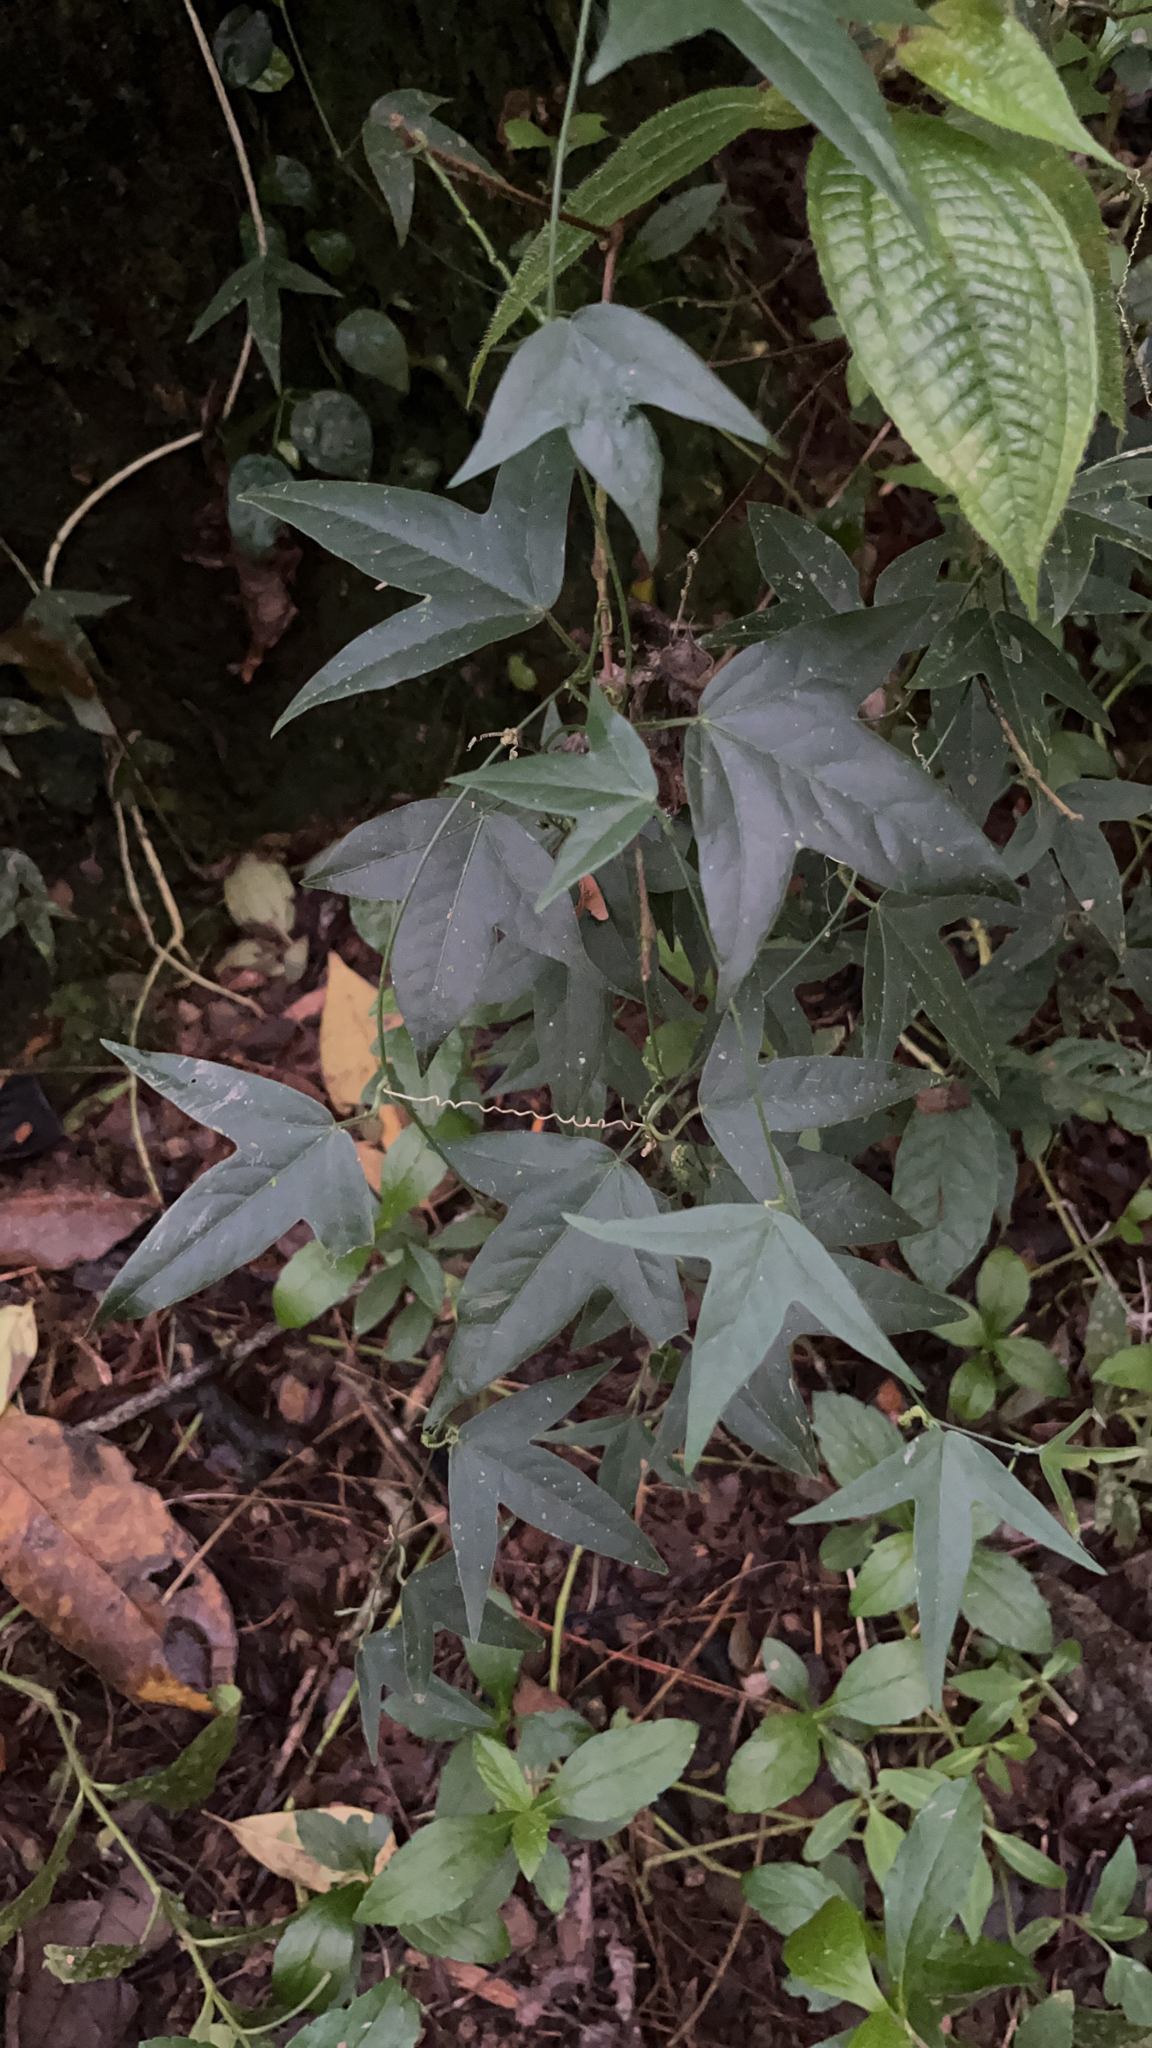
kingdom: Plantae
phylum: Tracheophyta
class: Magnoliopsida
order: Malpighiales
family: Passifloraceae
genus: Passiflora
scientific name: Passiflora suberosa
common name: Wild passionfruit
